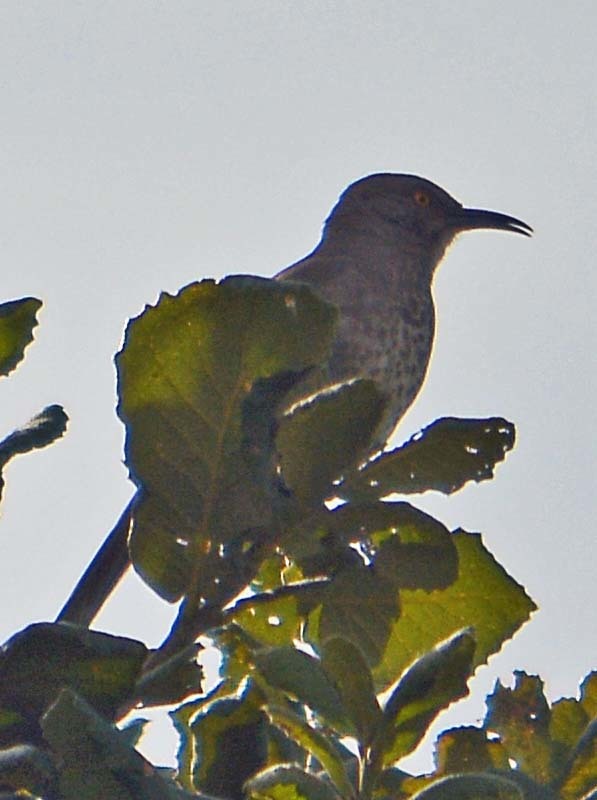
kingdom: Animalia
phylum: Chordata
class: Aves
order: Passeriformes
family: Mimidae
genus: Toxostoma
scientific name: Toxostoma curvirostre
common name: Curve-billed thrasher
